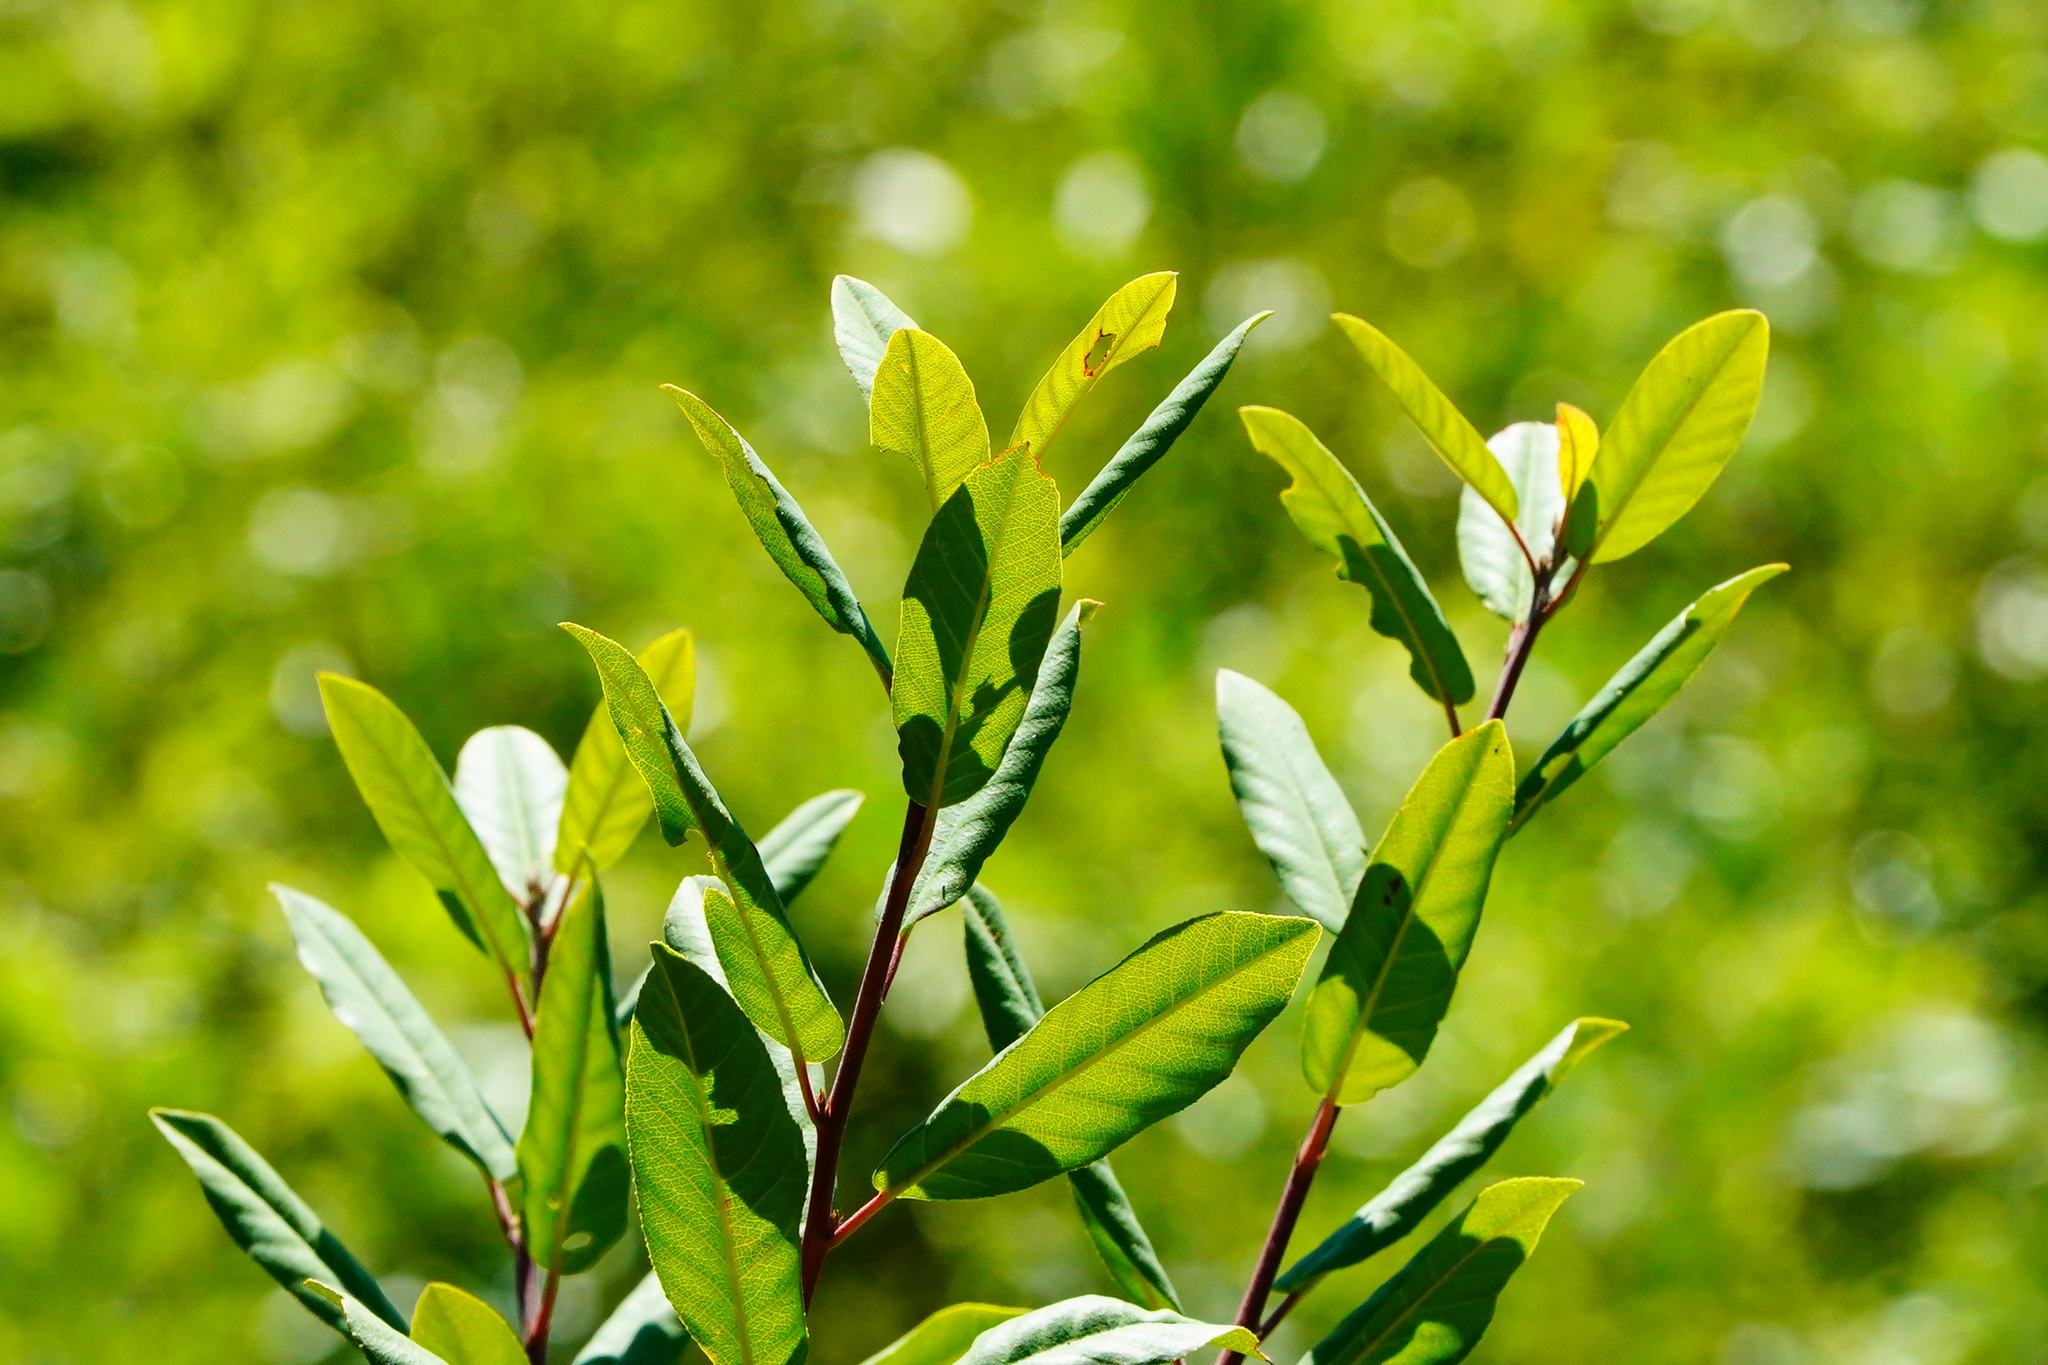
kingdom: Plantae
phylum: Tracheophyta
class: Magnoliopsida
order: Rosales
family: Rhamnaceae
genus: Frangula
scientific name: Frangula californica
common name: California buckthorn
